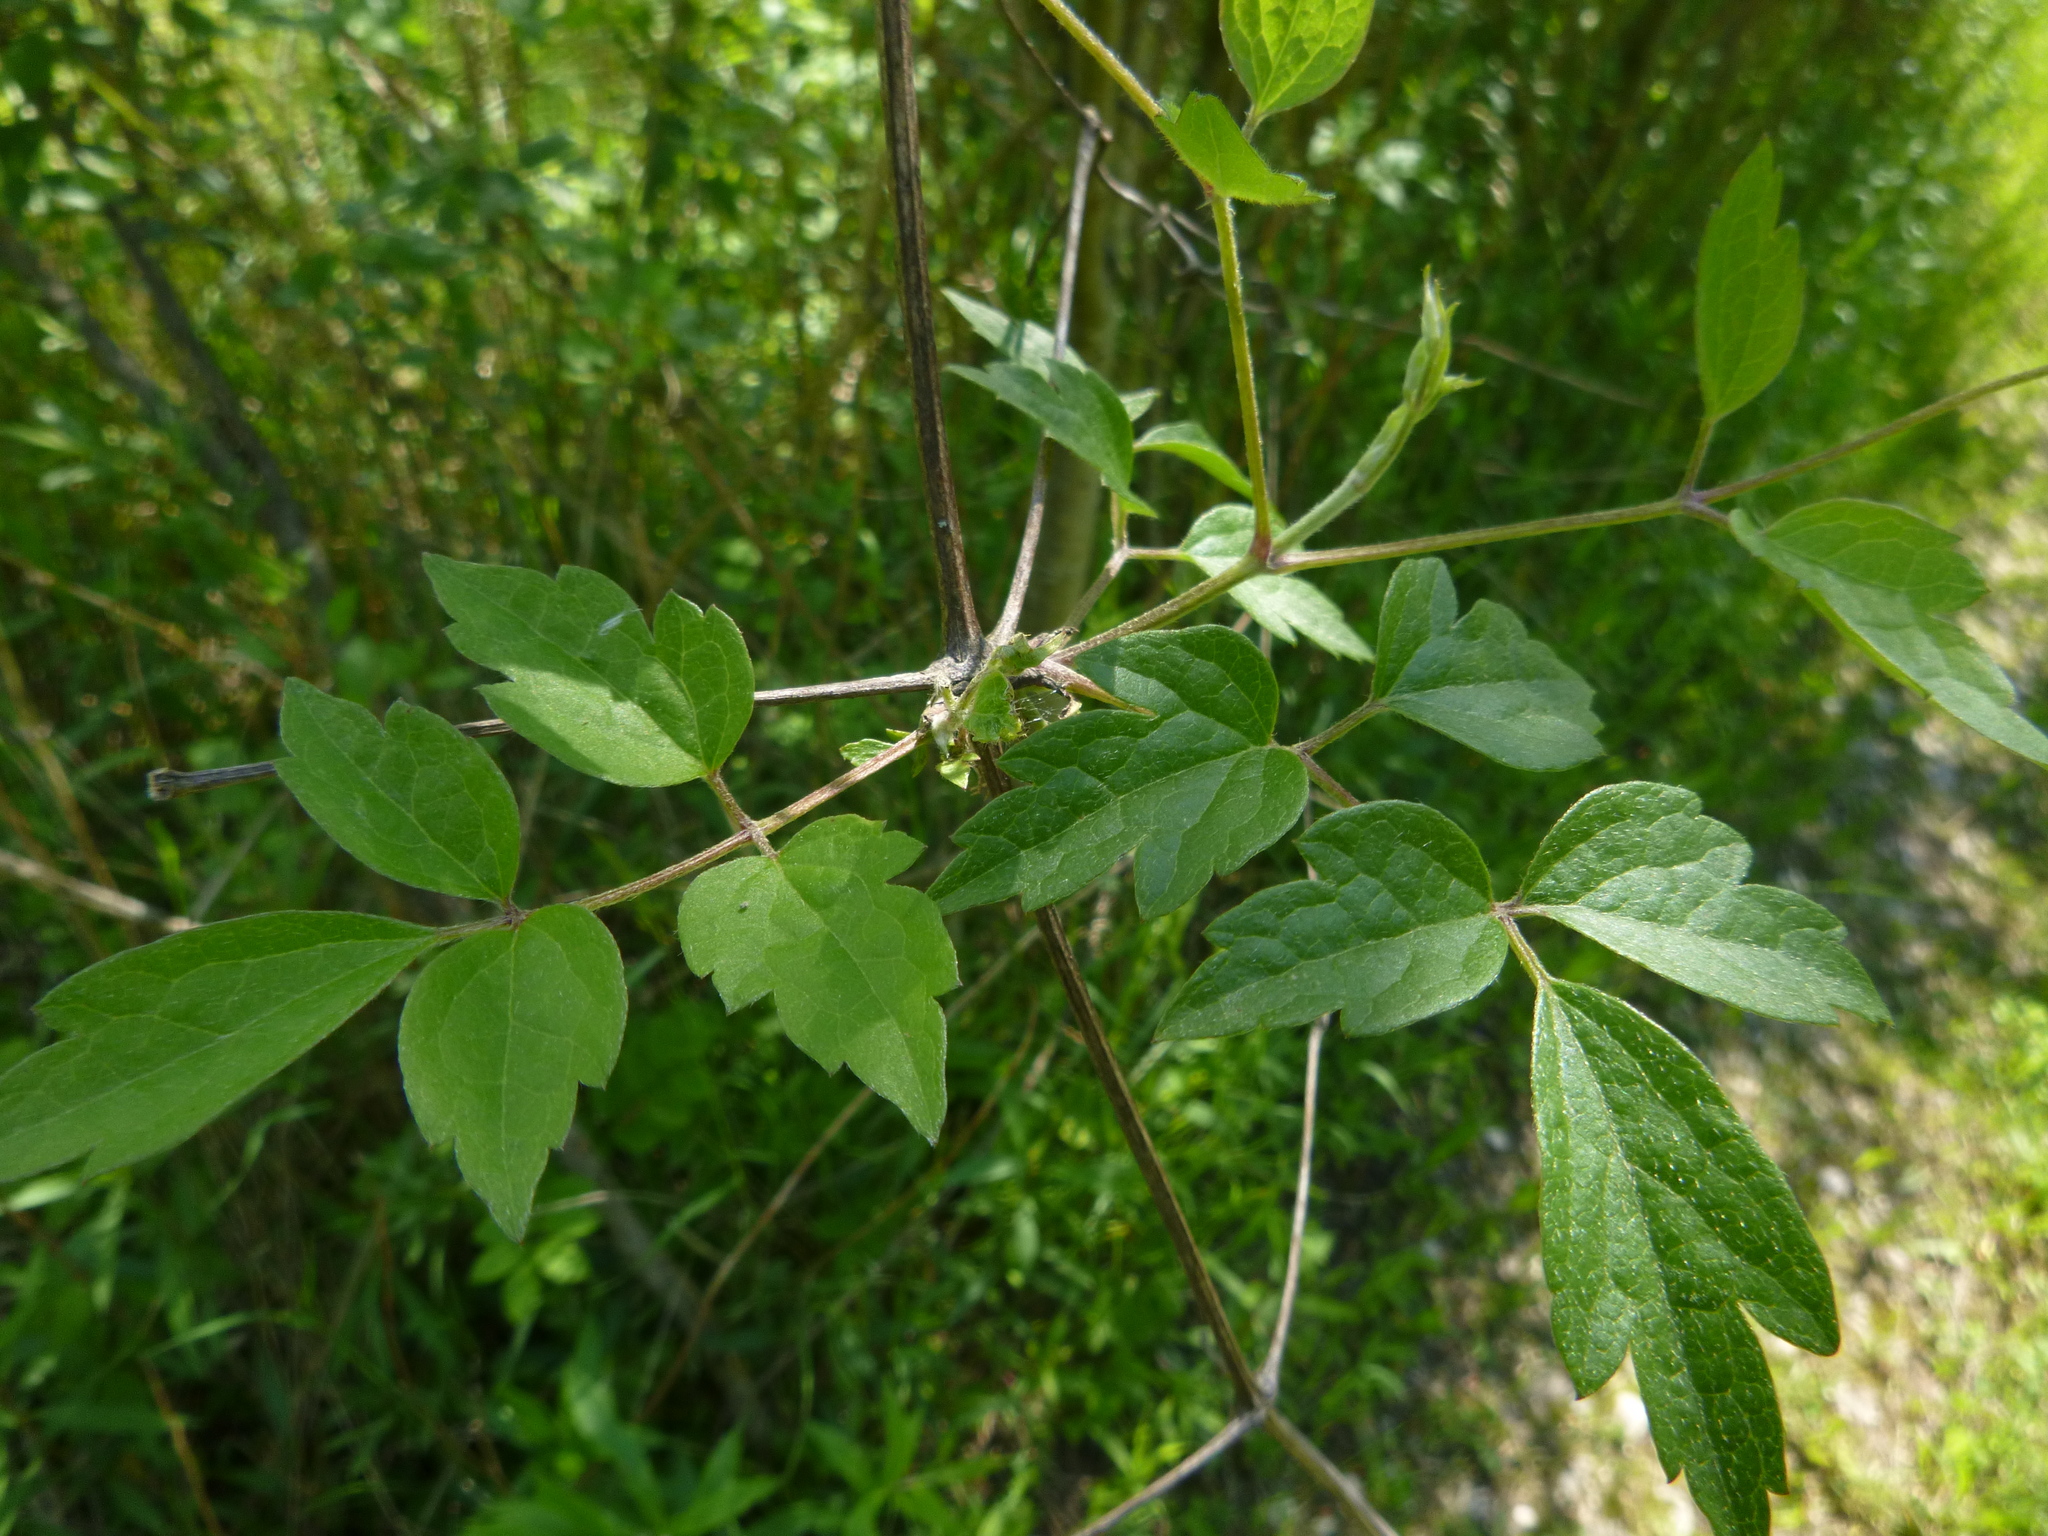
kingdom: Plantae
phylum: Tracheophyta
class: Magnoliopsida
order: Ranunculales
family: Ranunculaceae
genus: Clematis
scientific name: Clematis vitalba
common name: Evergreen clematis
